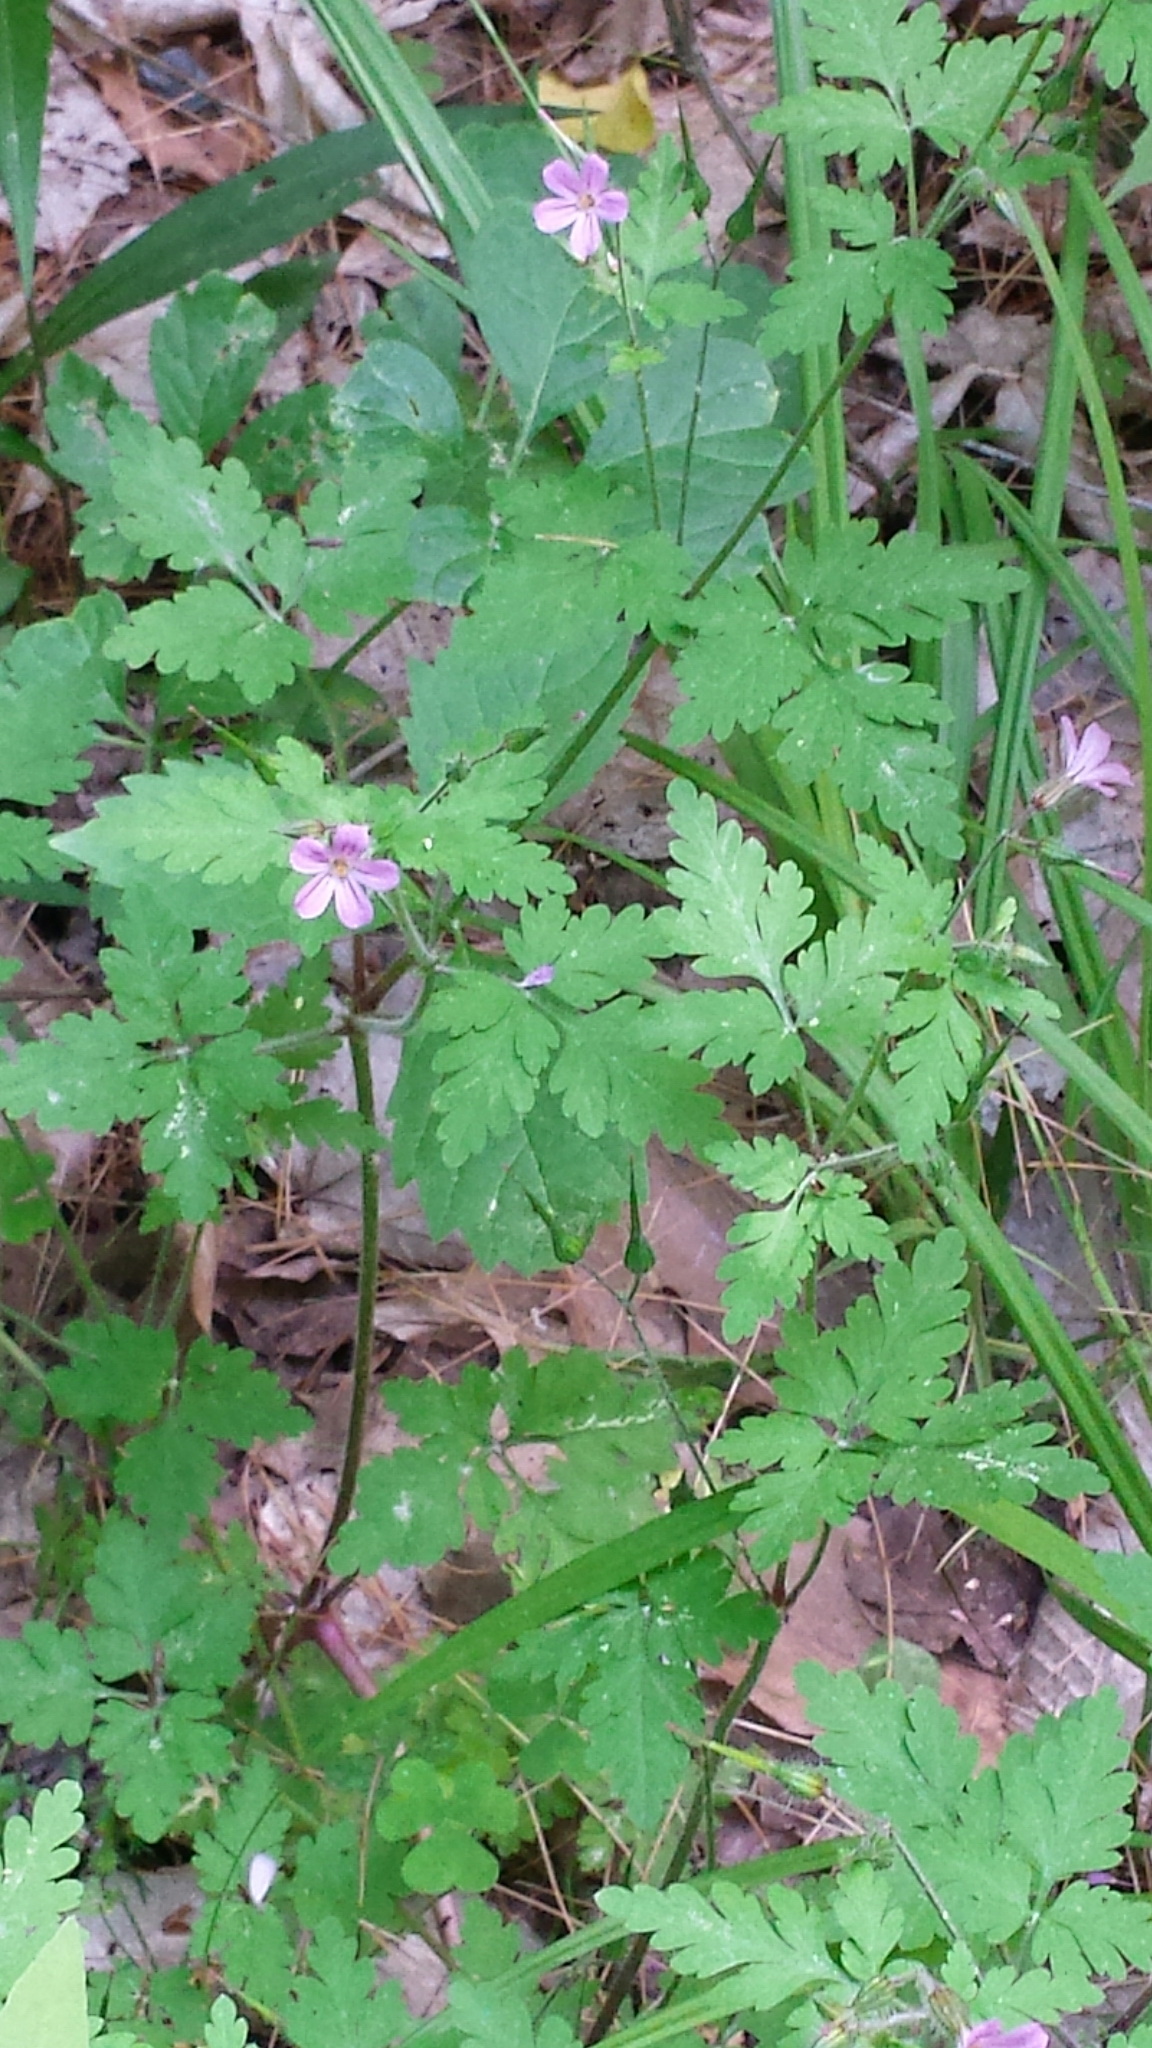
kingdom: Plantae
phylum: Tracheophyta
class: Magnoliopsida
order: Geraniales
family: Geraniaceae
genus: Geranium
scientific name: Geranium robertianum
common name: Herb-robert
